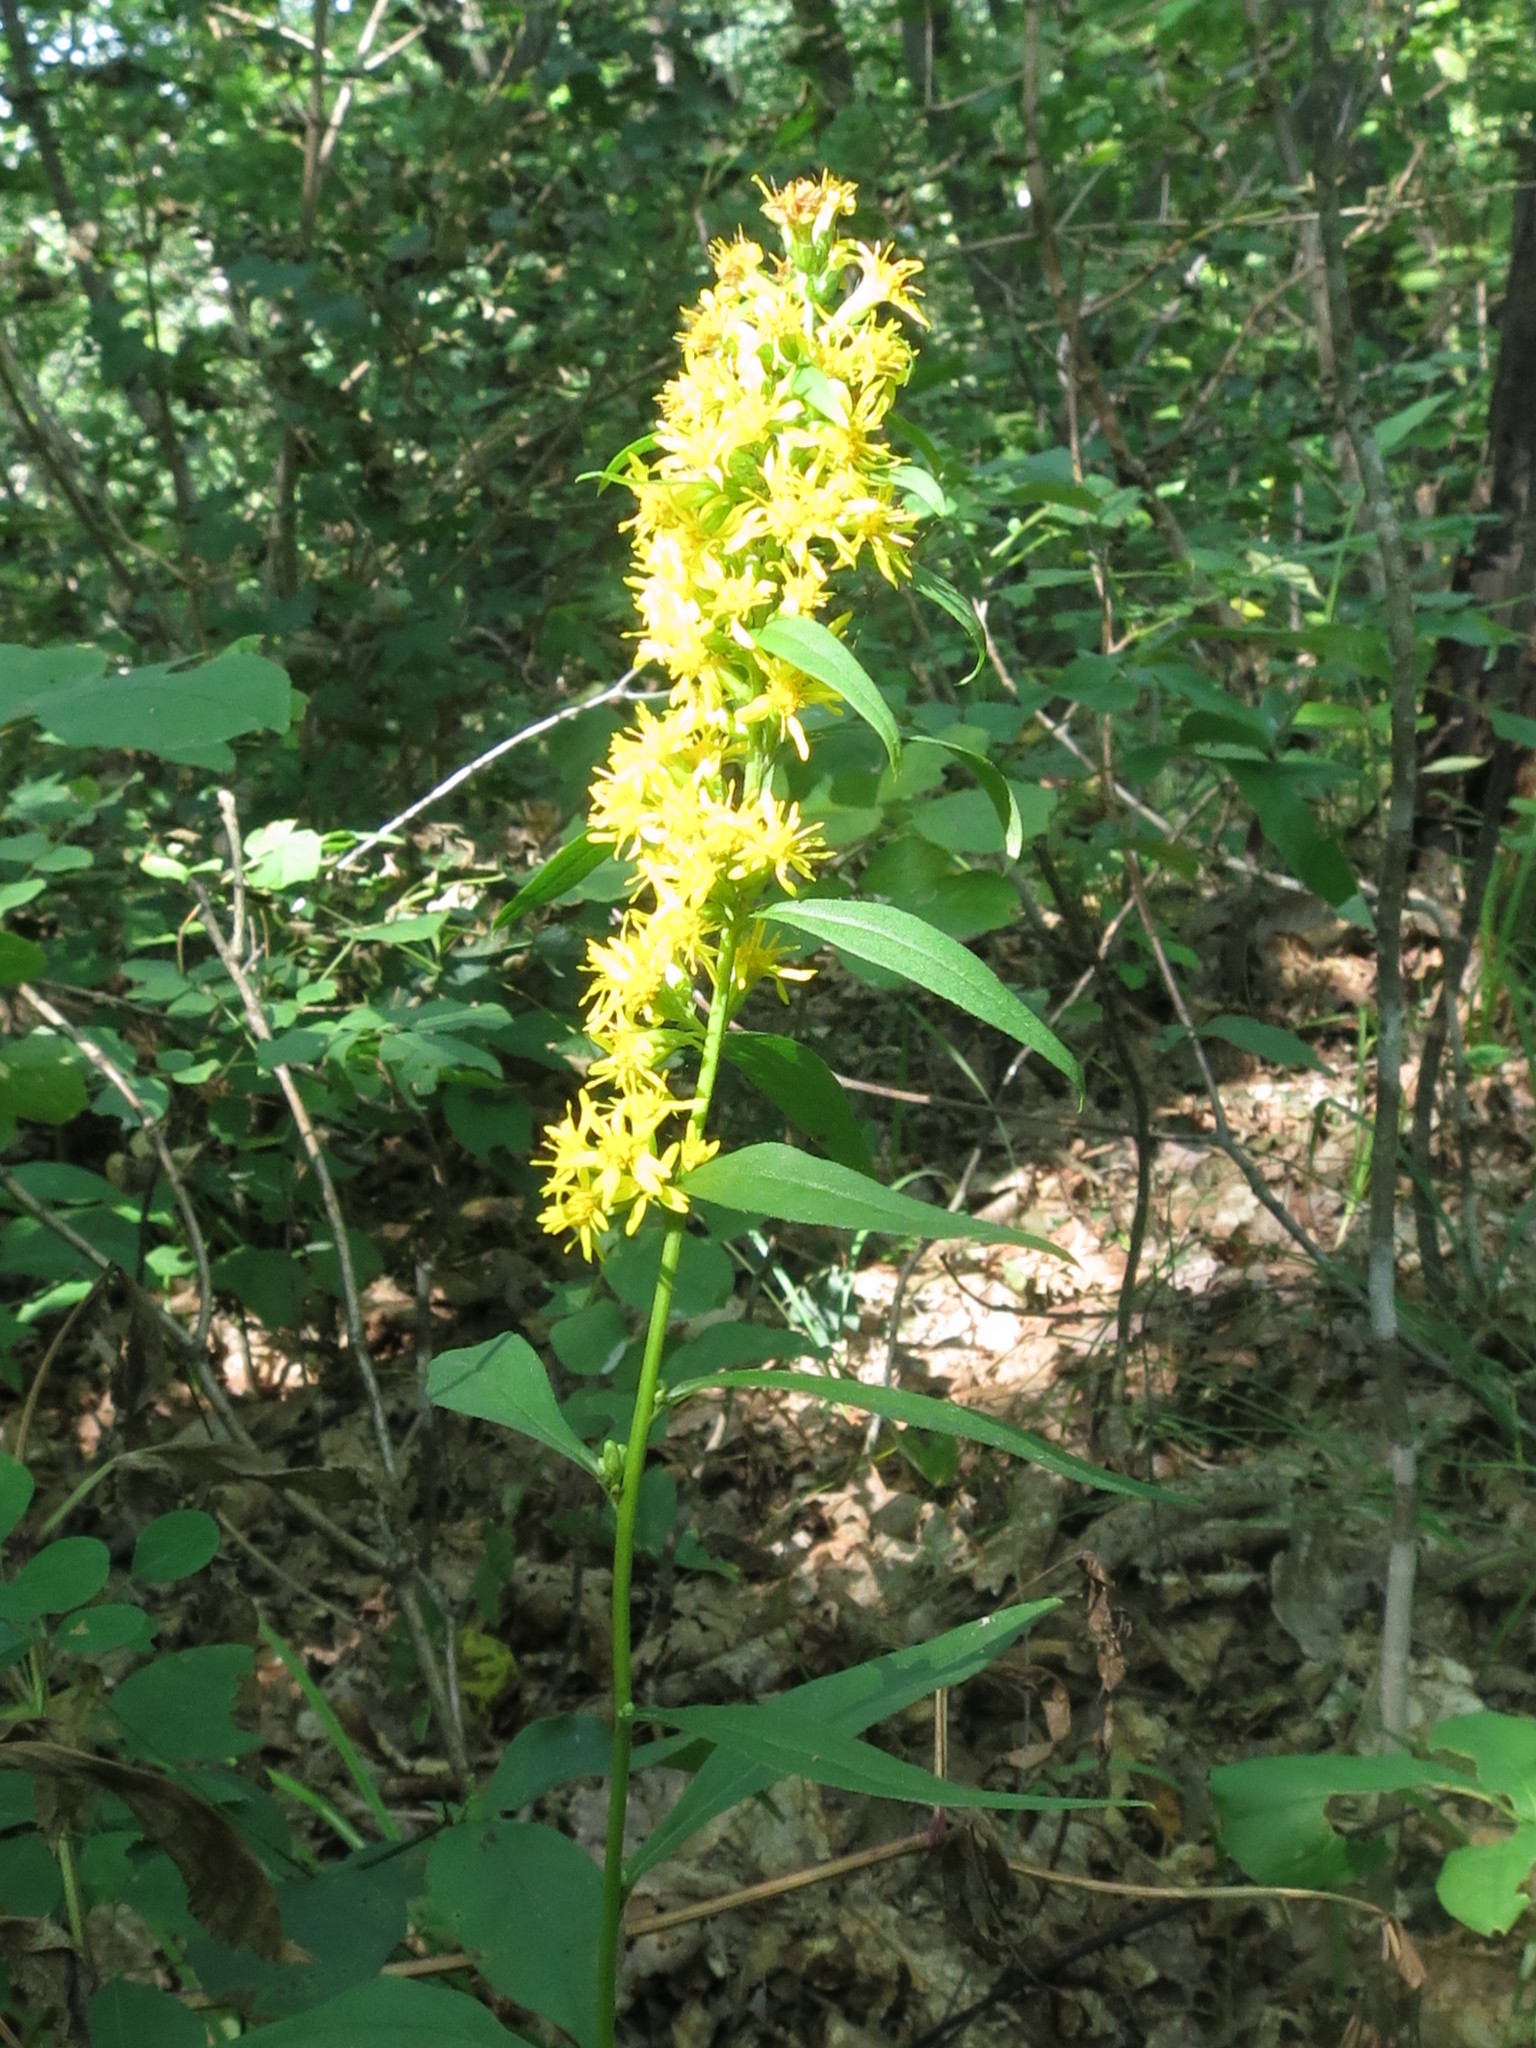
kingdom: Plantae
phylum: Tracheophyta
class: Magnoliopsida
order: Asterales
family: Asteraceae
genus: Solidago
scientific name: Solidago decurrens
